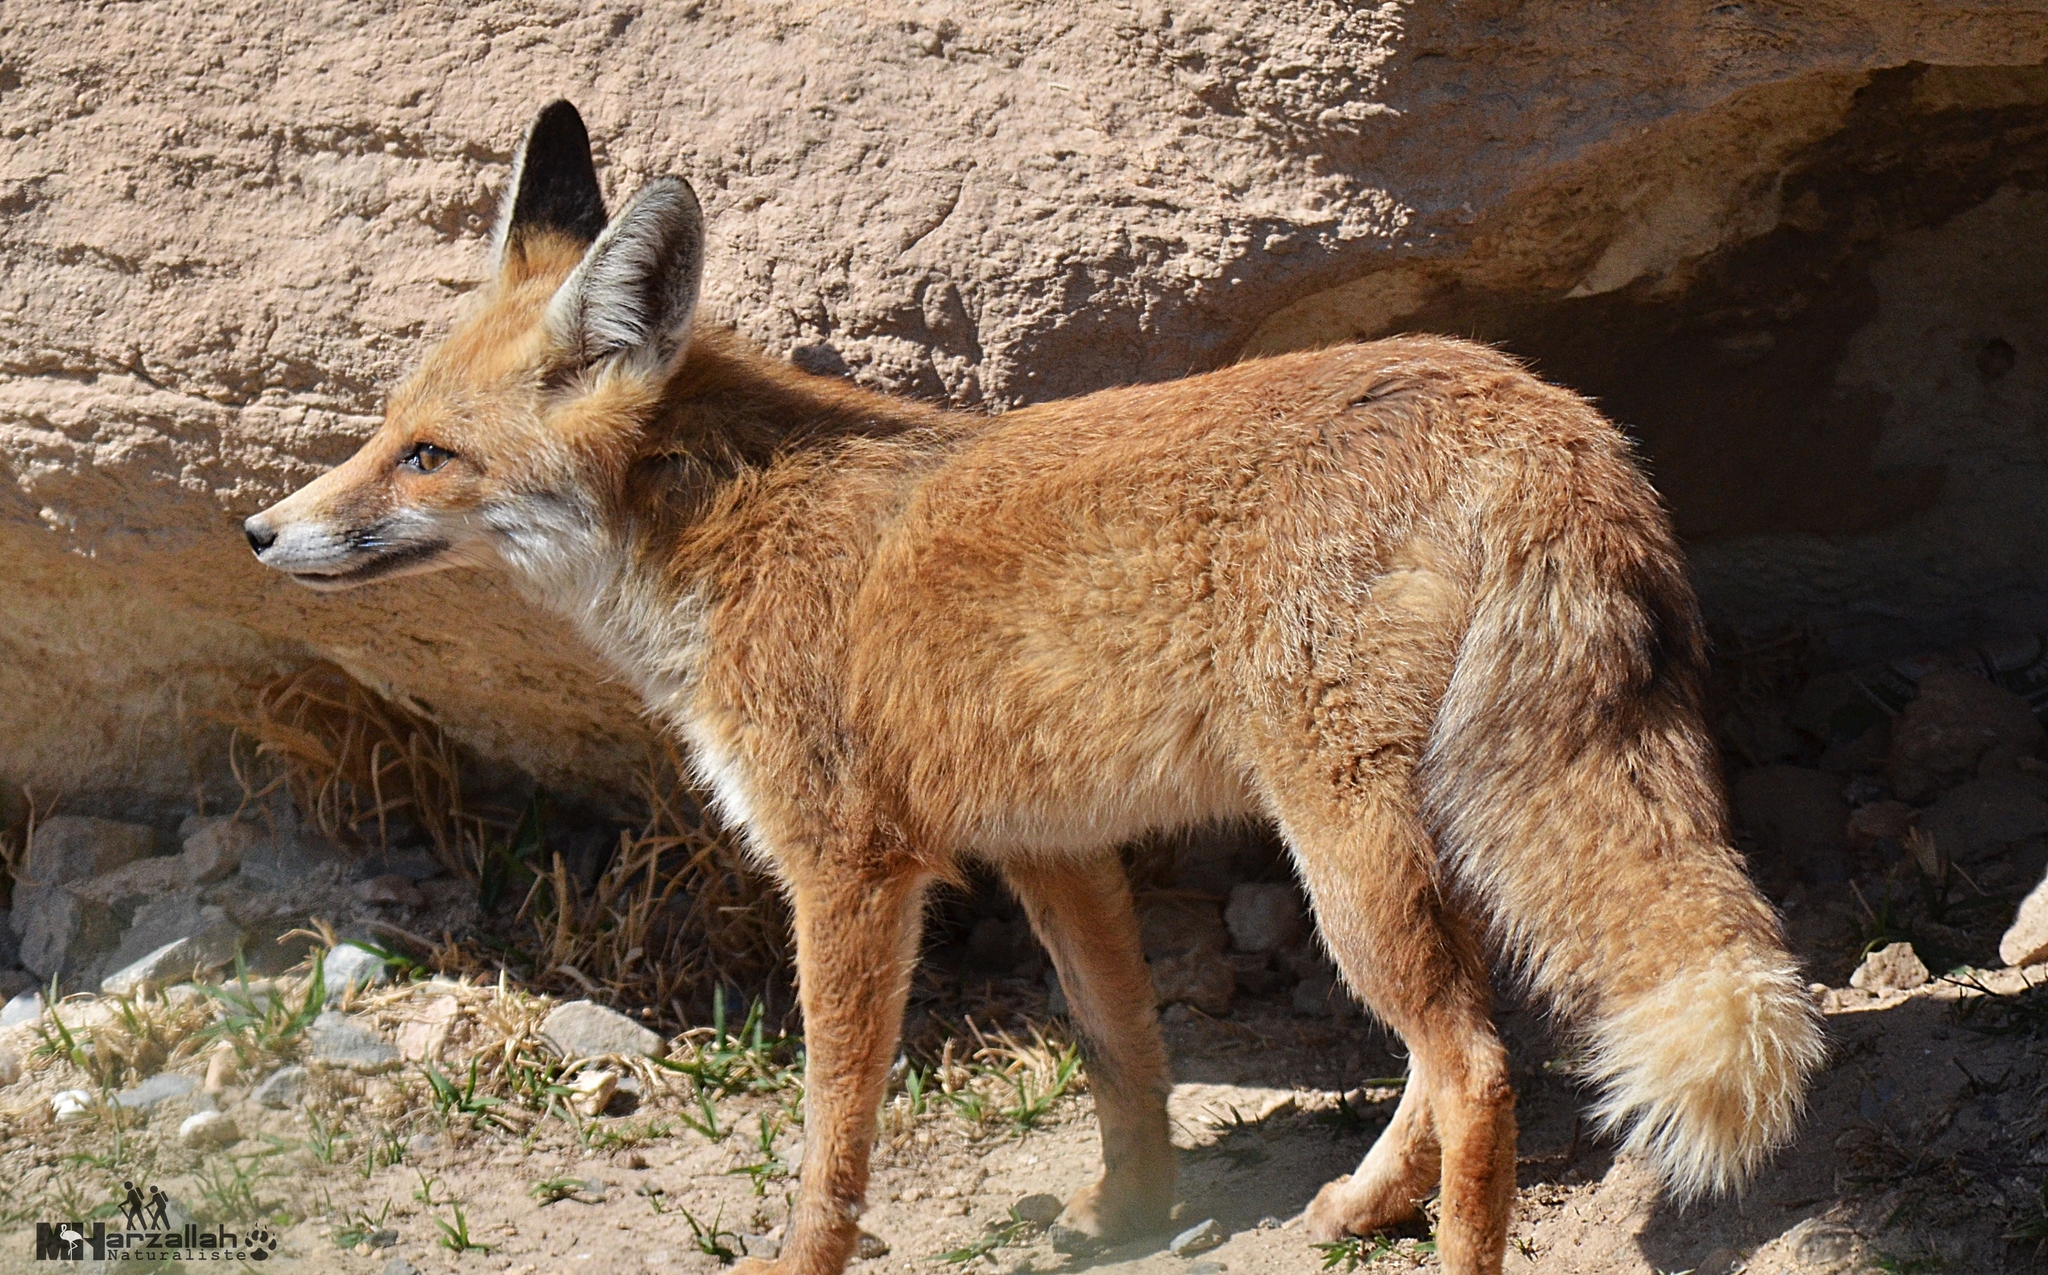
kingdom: Animalia
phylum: Chordata
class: Mammalia
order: Carnivora
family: Canidae
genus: Vulpes
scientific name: Vulpes vulpes
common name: Red fox
